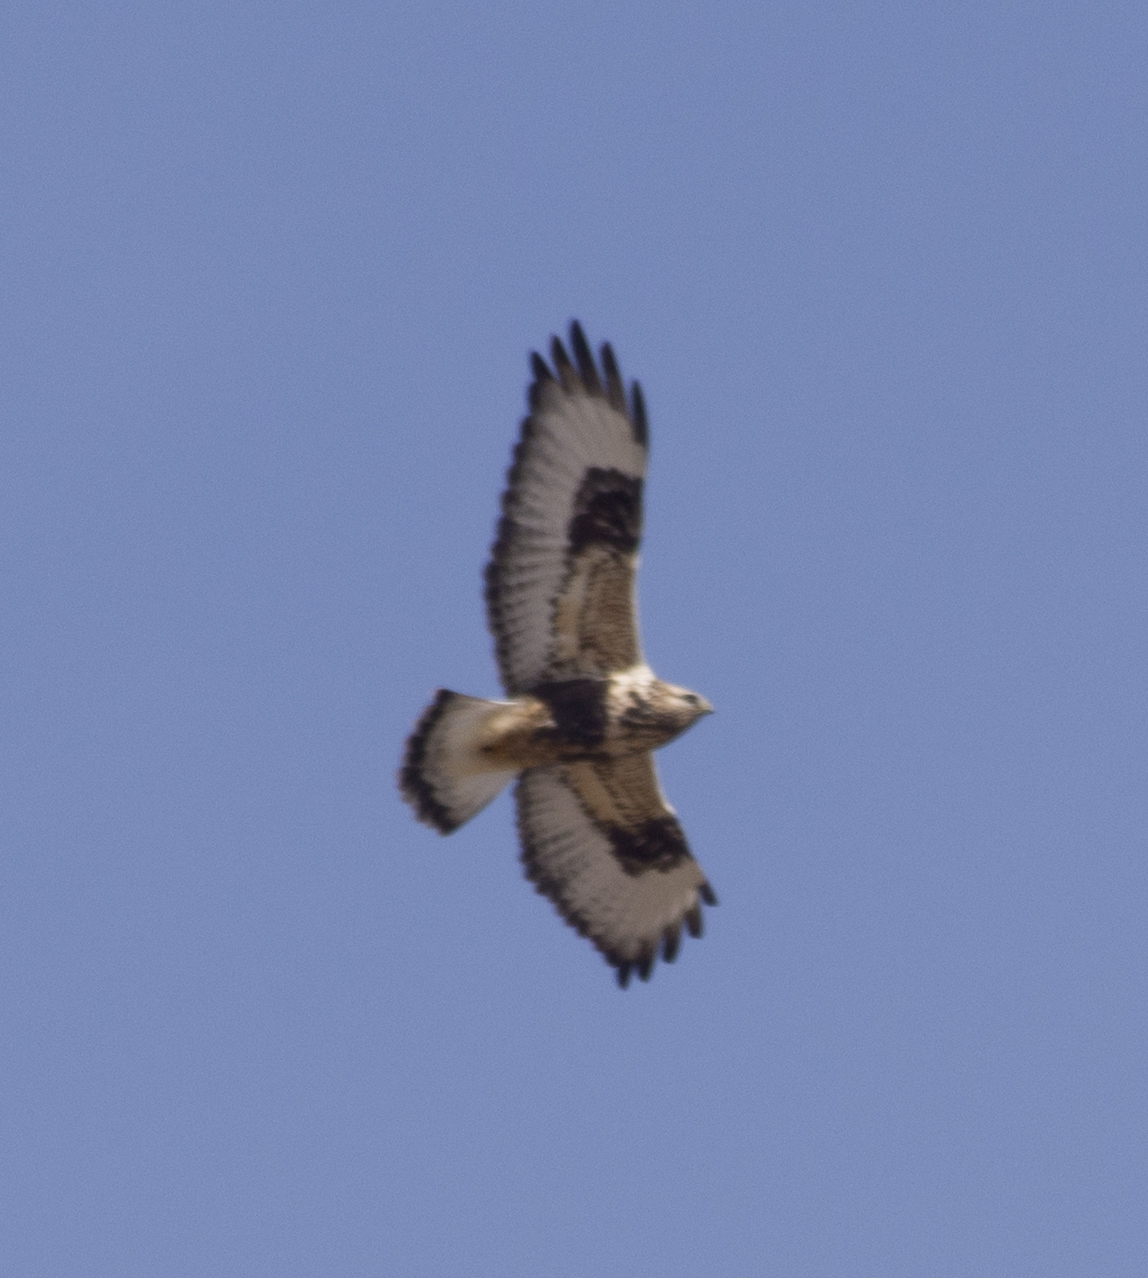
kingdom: Animalia
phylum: Chordata
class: Aves
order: Accipitriformes
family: Accipitridae
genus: Buteo
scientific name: Buteo lagopus
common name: Rough-legged buzzard
